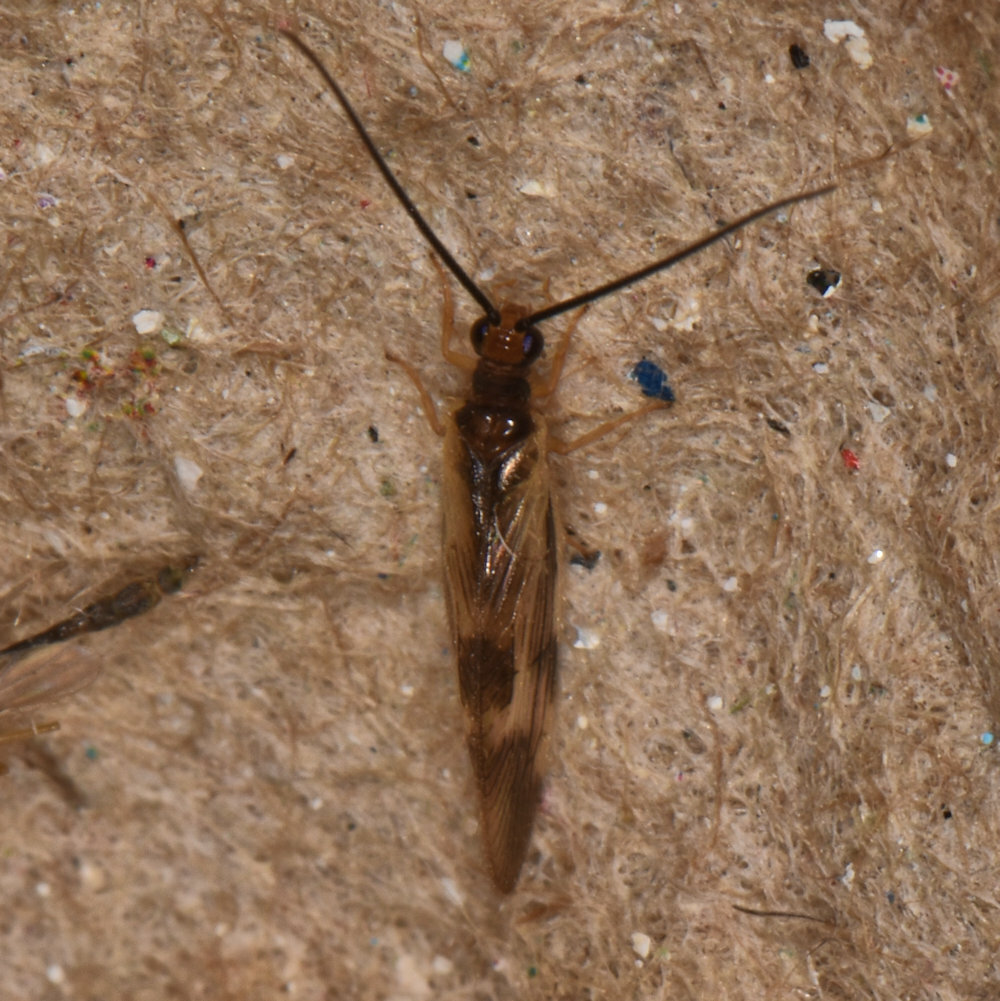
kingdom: Animalia
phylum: Arthropoda
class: Insecta
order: Neuroptera
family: Sisyridae
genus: Climacia
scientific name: Climacia areolaris
